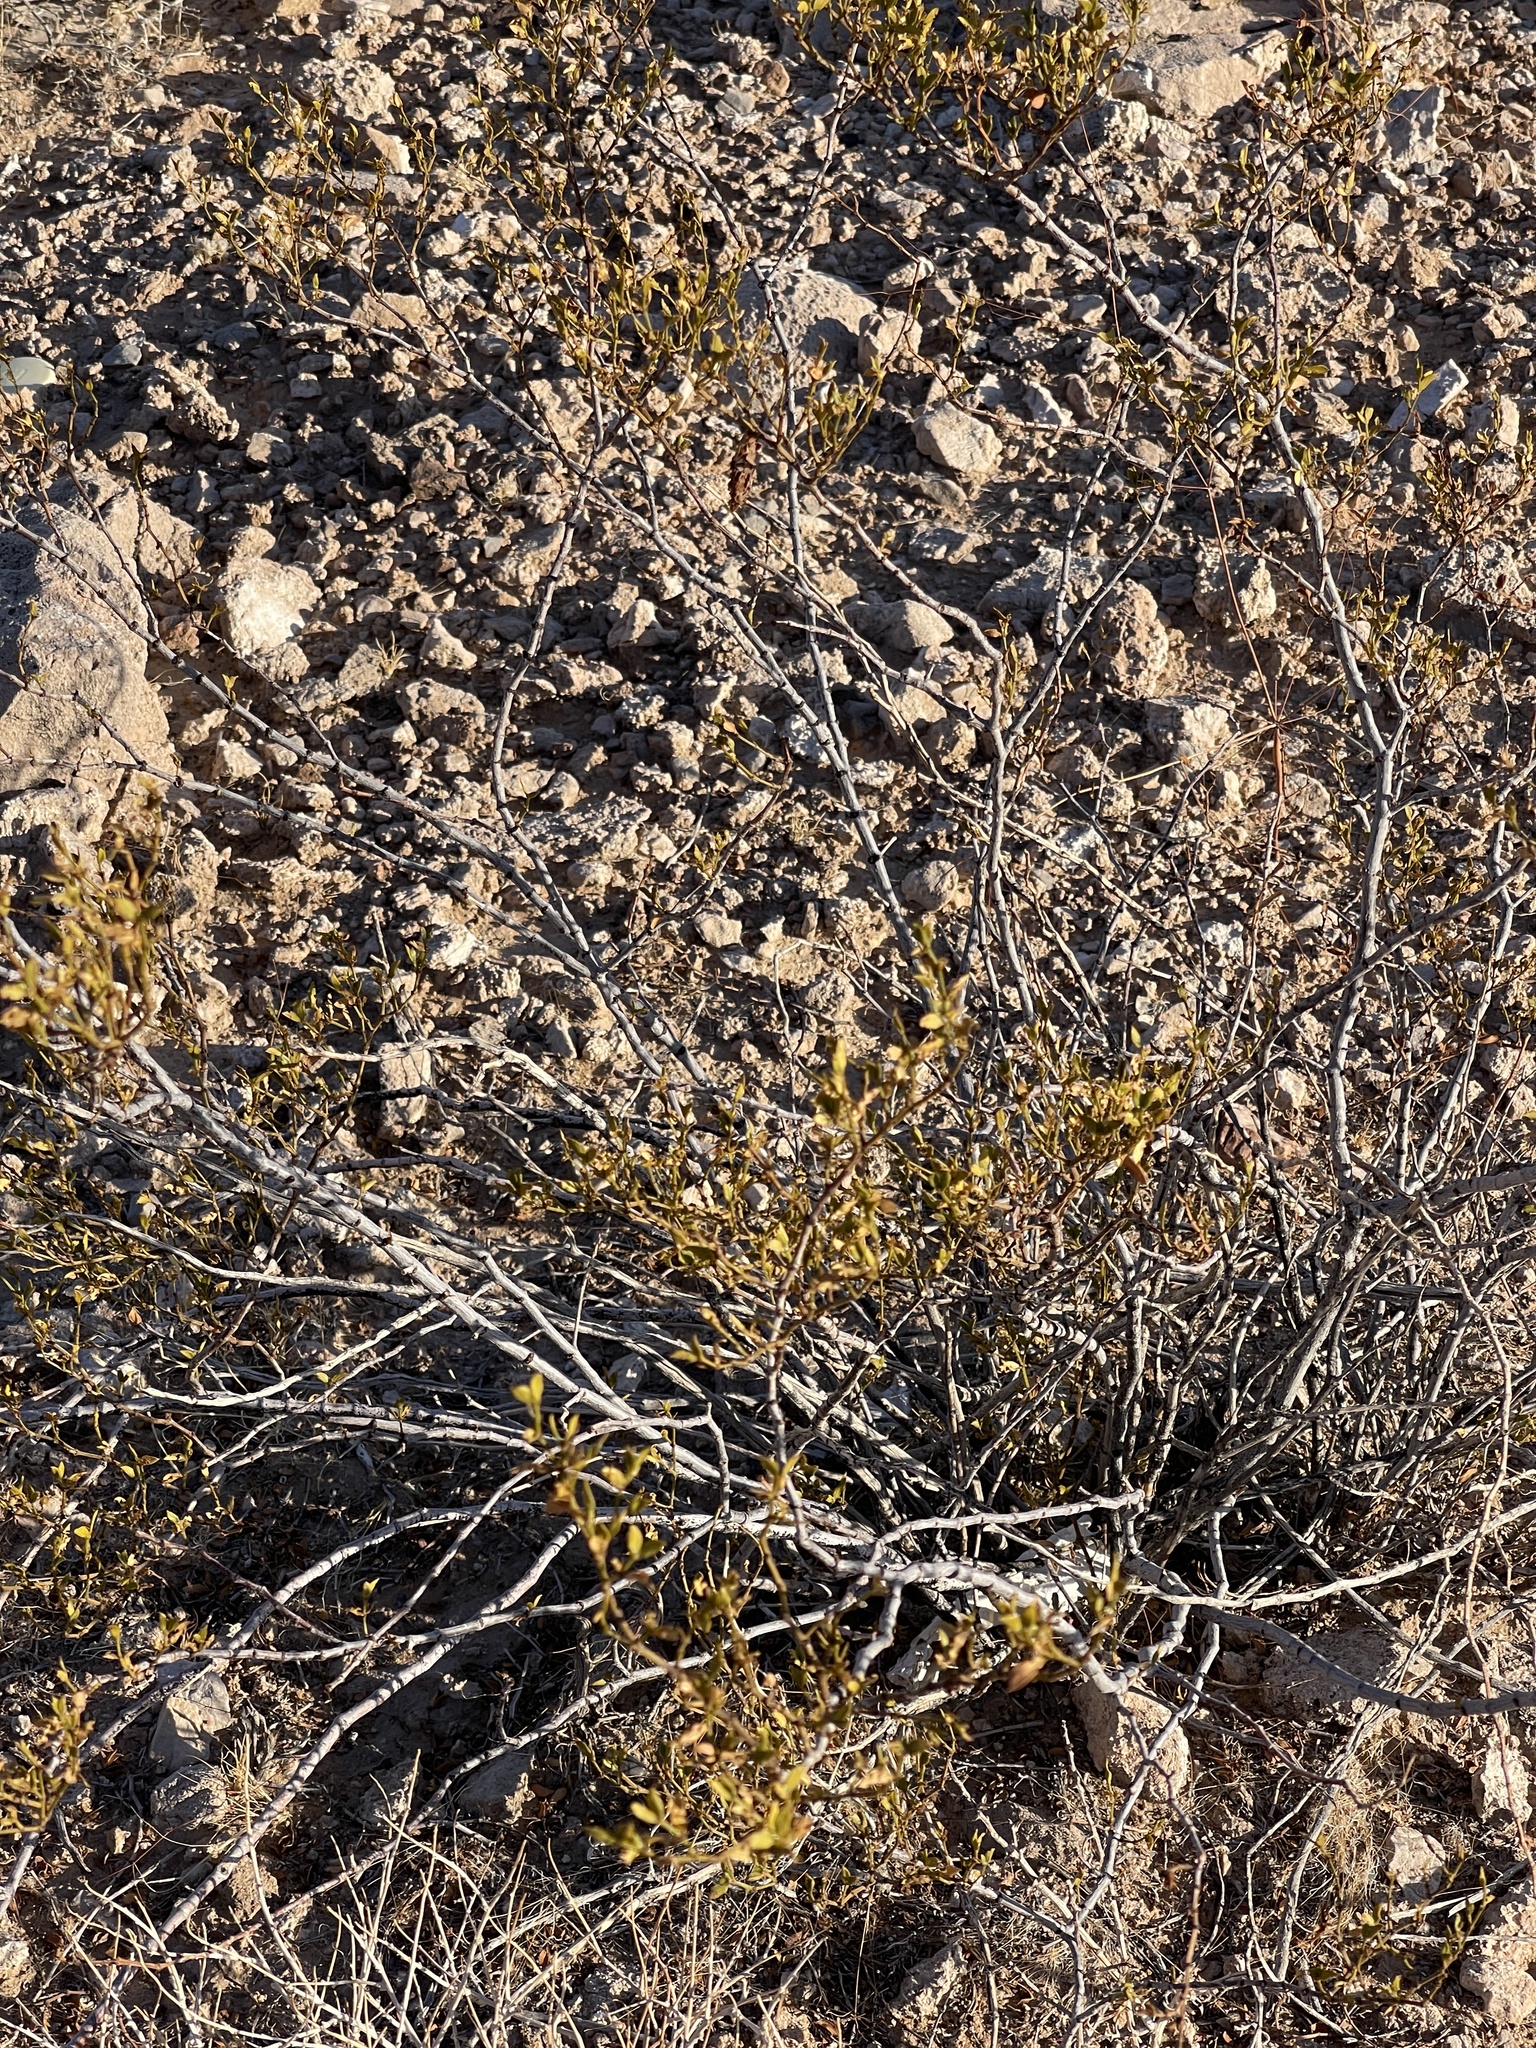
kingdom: Plantae
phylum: Tracheophyta
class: Magnoliopsida
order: Zygophyllales
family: Zygophyllaceae
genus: Larrea
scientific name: Larrea tridentata
